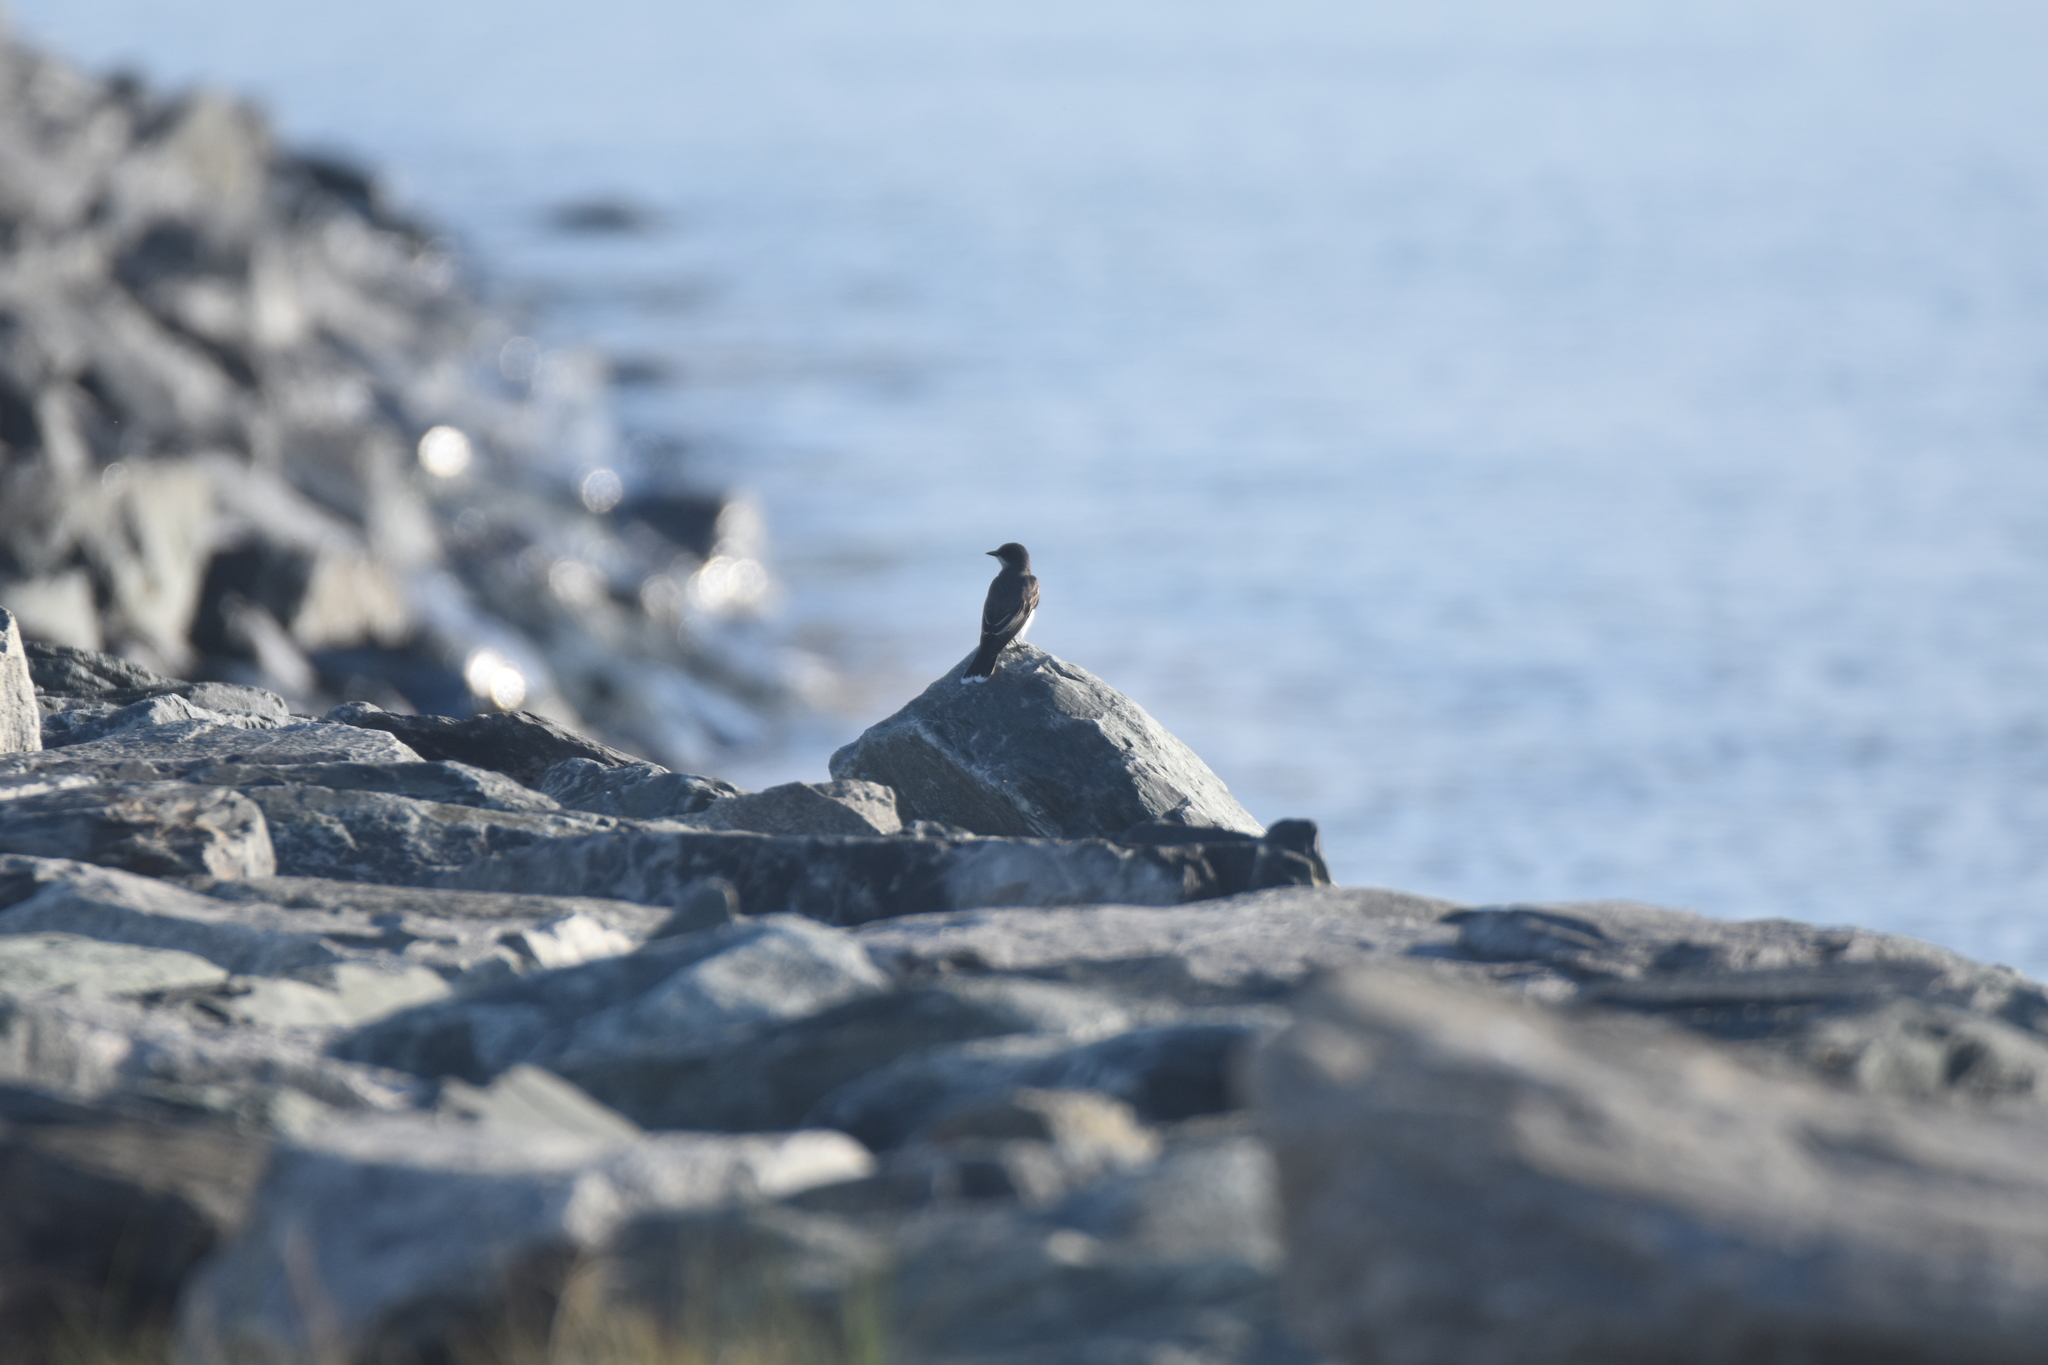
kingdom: Animalia
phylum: Chordata
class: Aves
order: Passeriformes
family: Tyrannidae
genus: Tyrannus
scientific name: Tyrannus tyrannus
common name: Eastern kingbird
